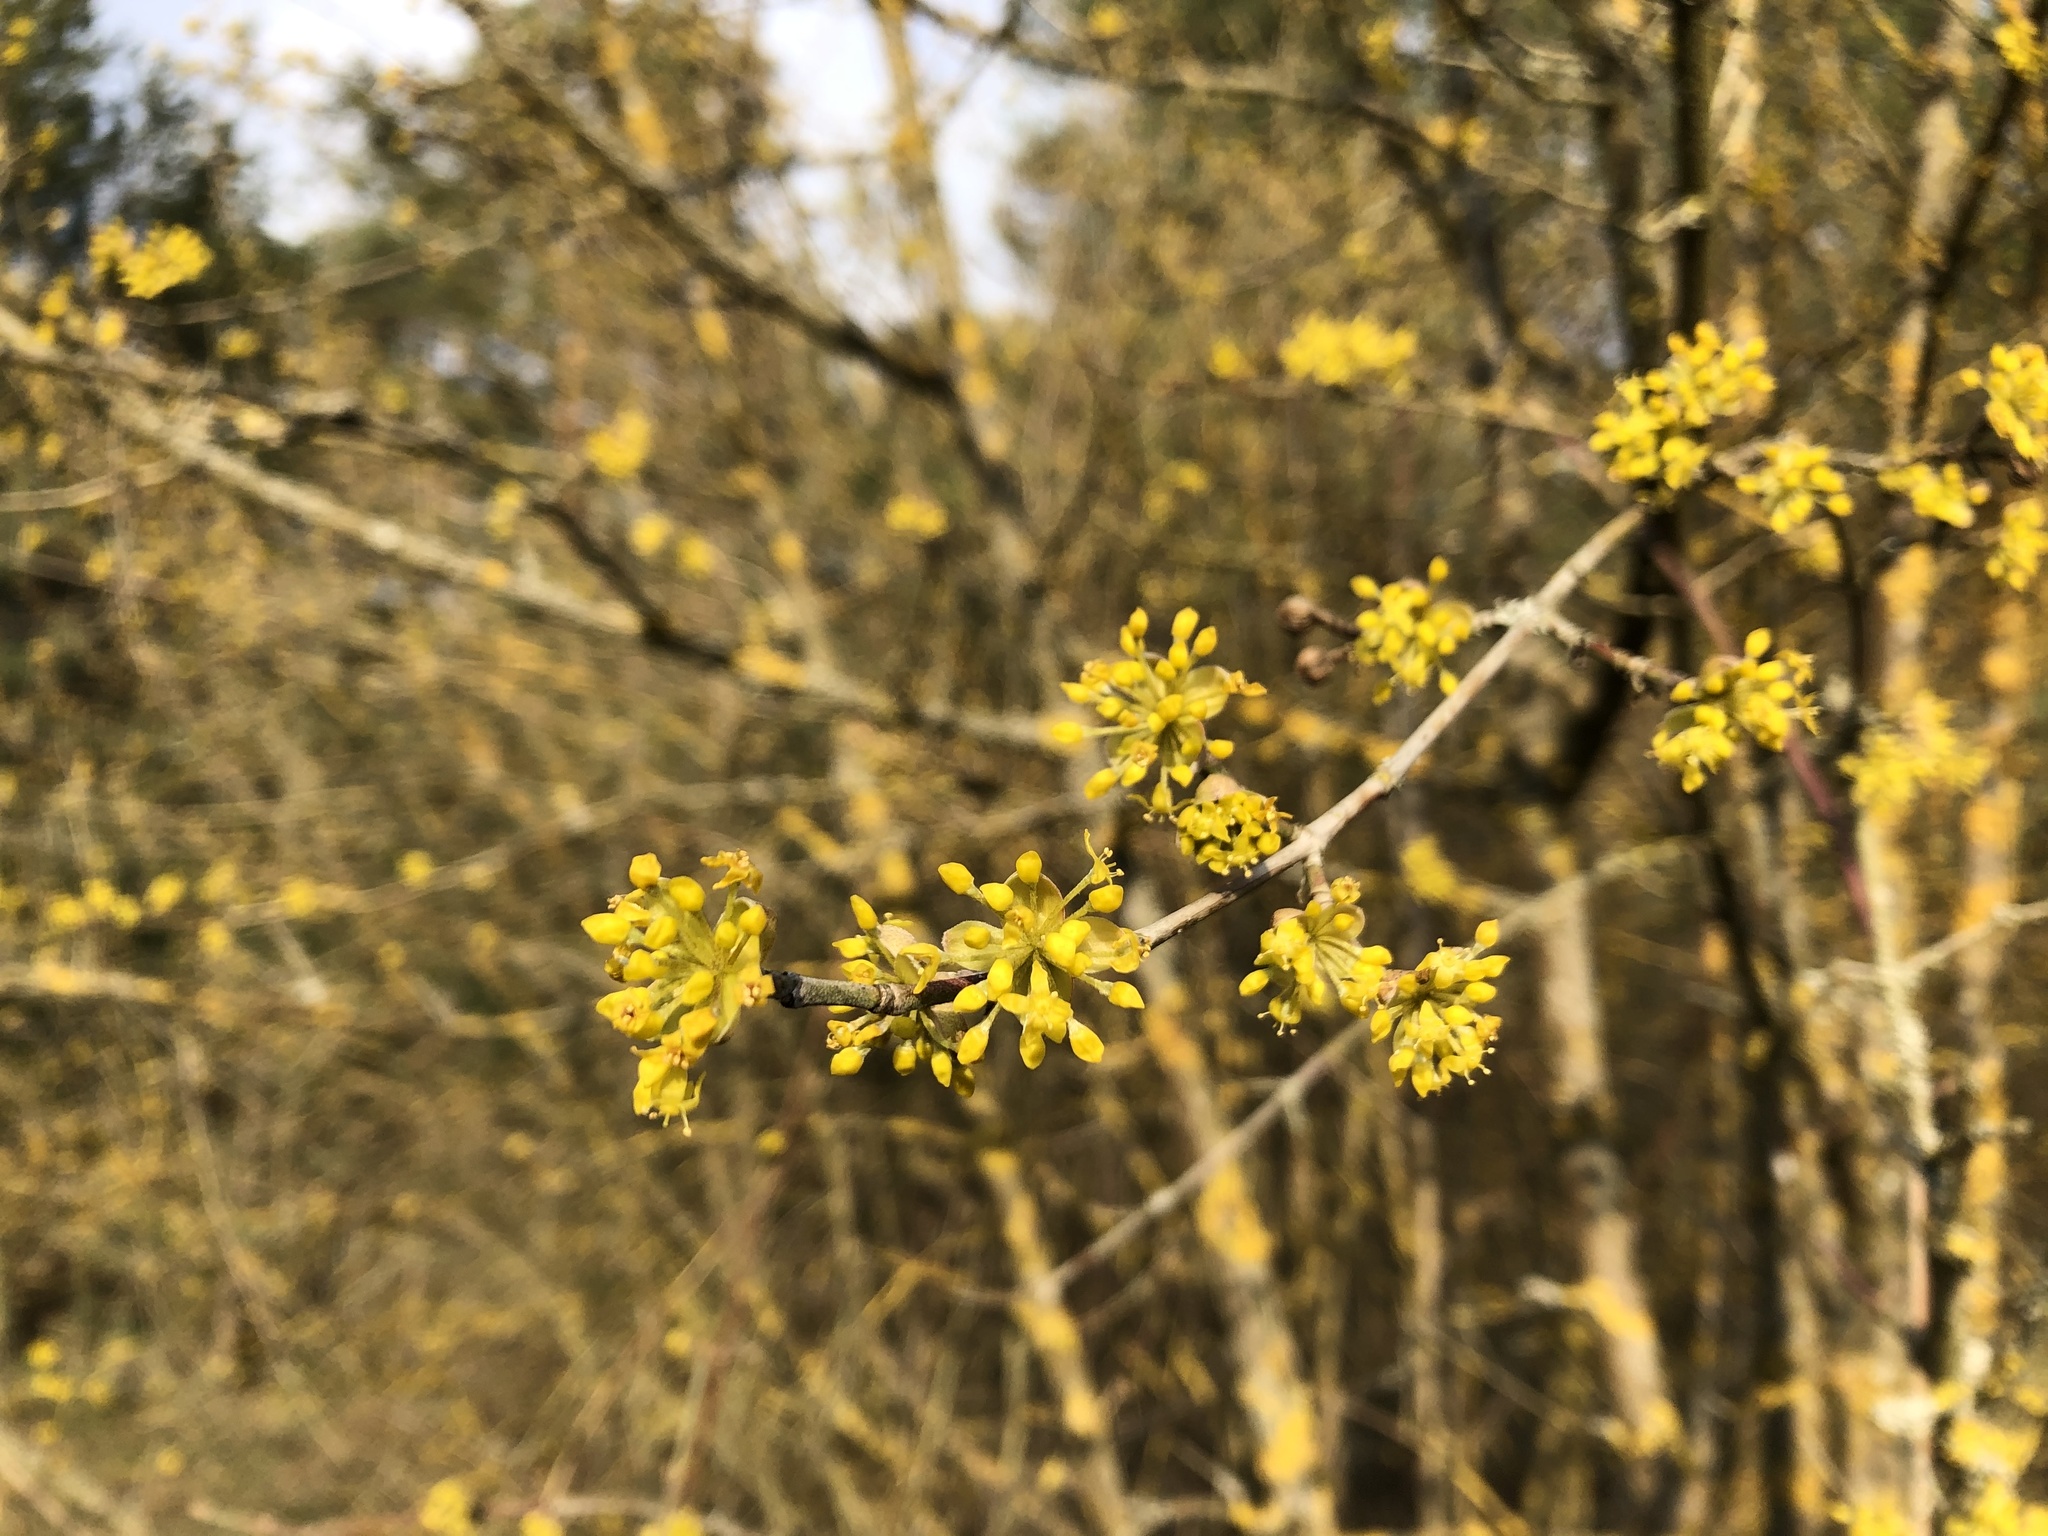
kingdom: Plantae
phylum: Tracheophyta
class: Magnoliopsida
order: Cornales
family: Cornaceae
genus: Cornus
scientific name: Cornus mas
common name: Cornelian-cherry
